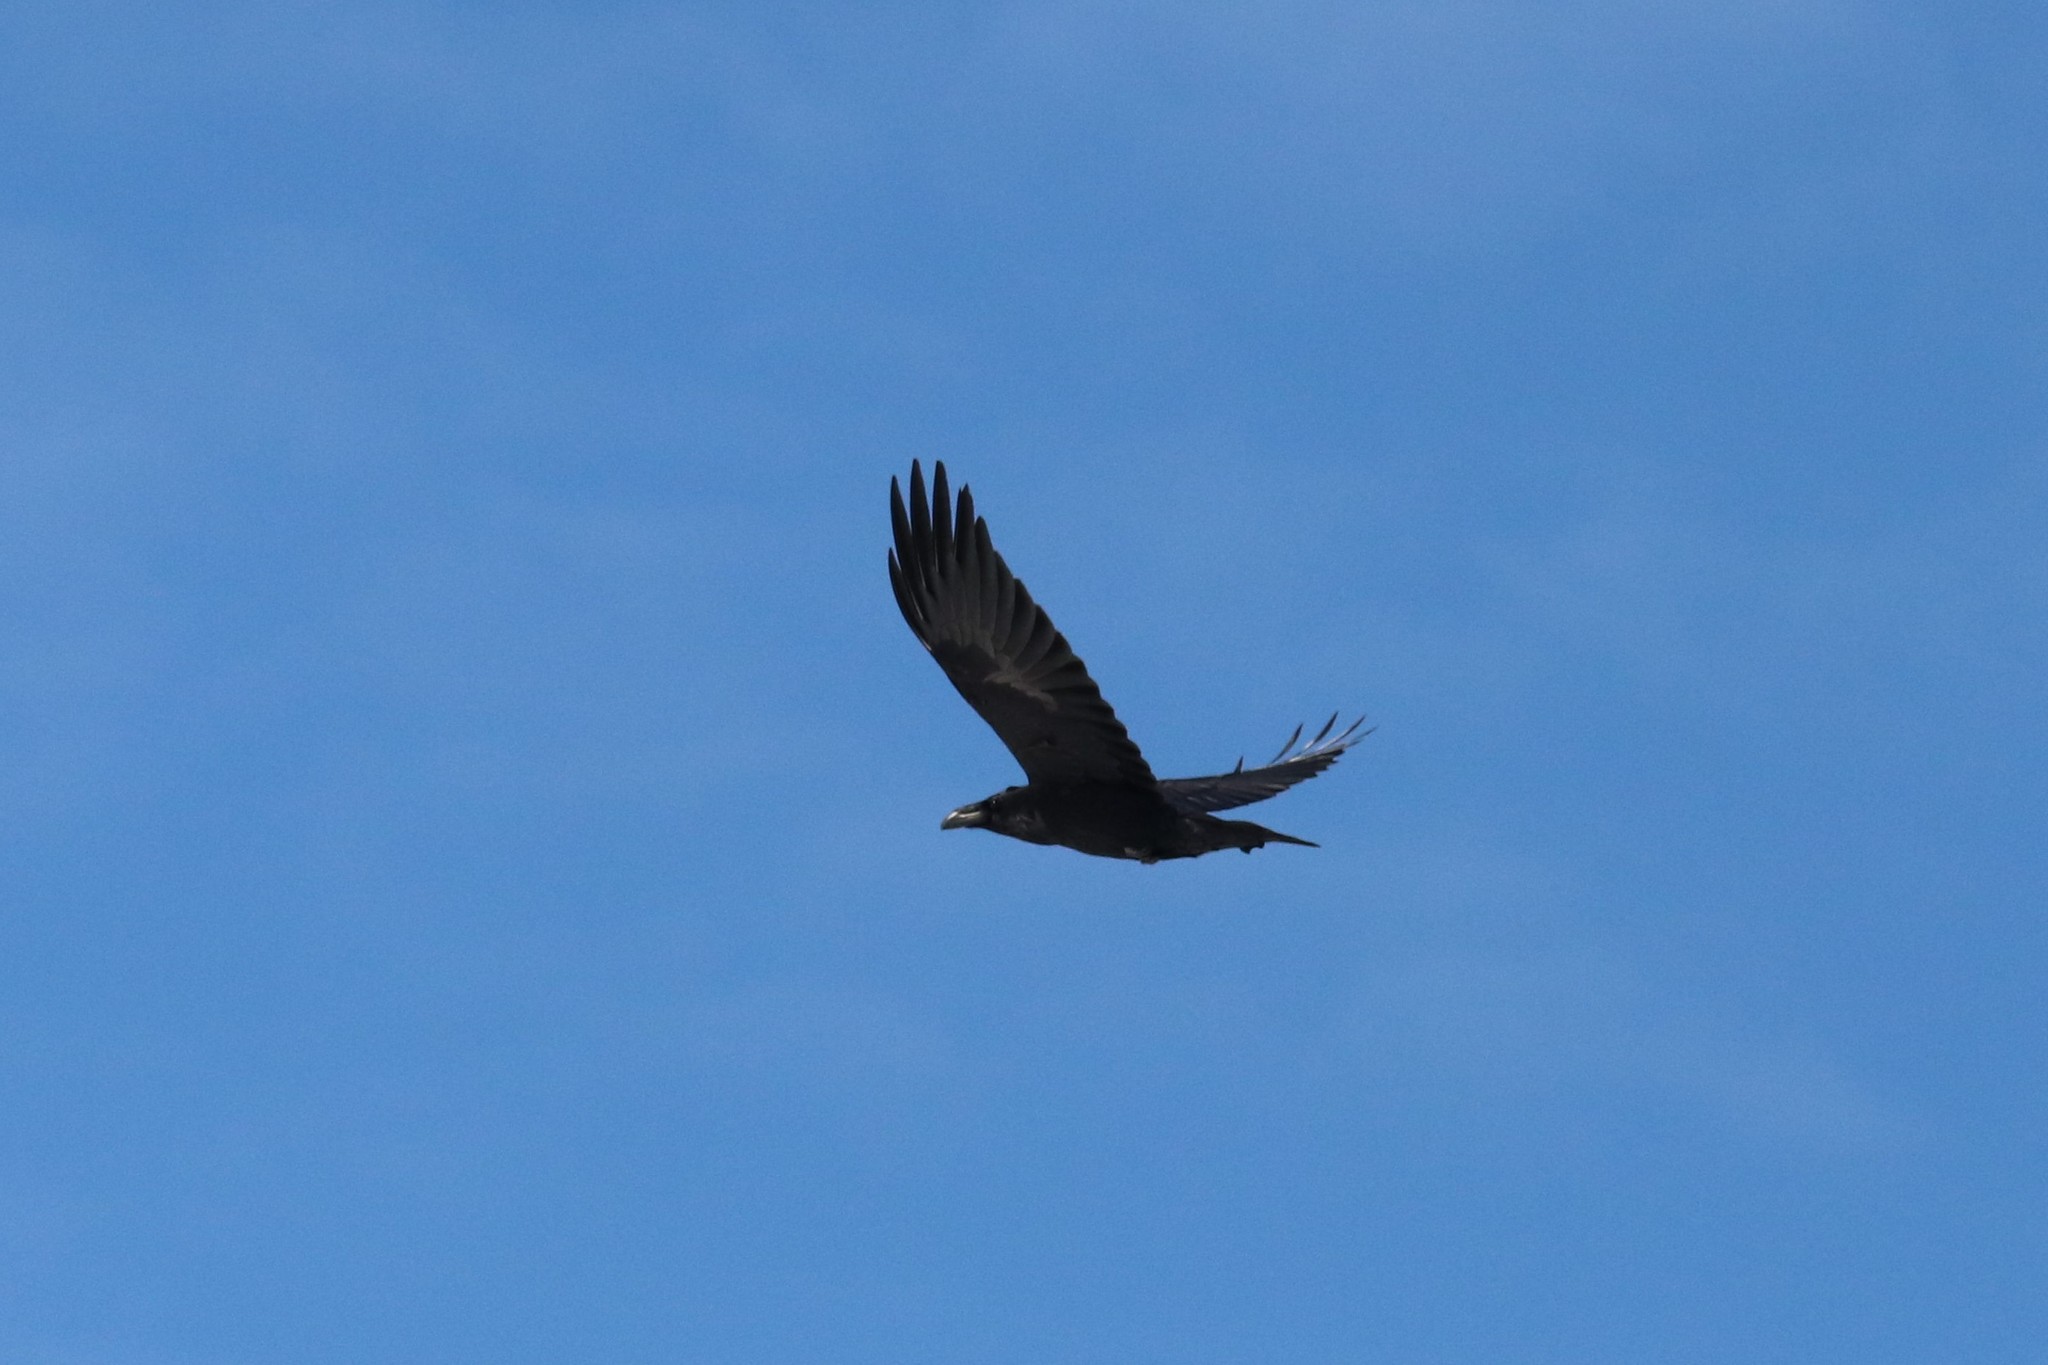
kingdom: Animalia
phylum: Chordata
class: Aves
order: Passeriformes
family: Corvidae
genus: Corvus
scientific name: Corvus corax
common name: Common raven
